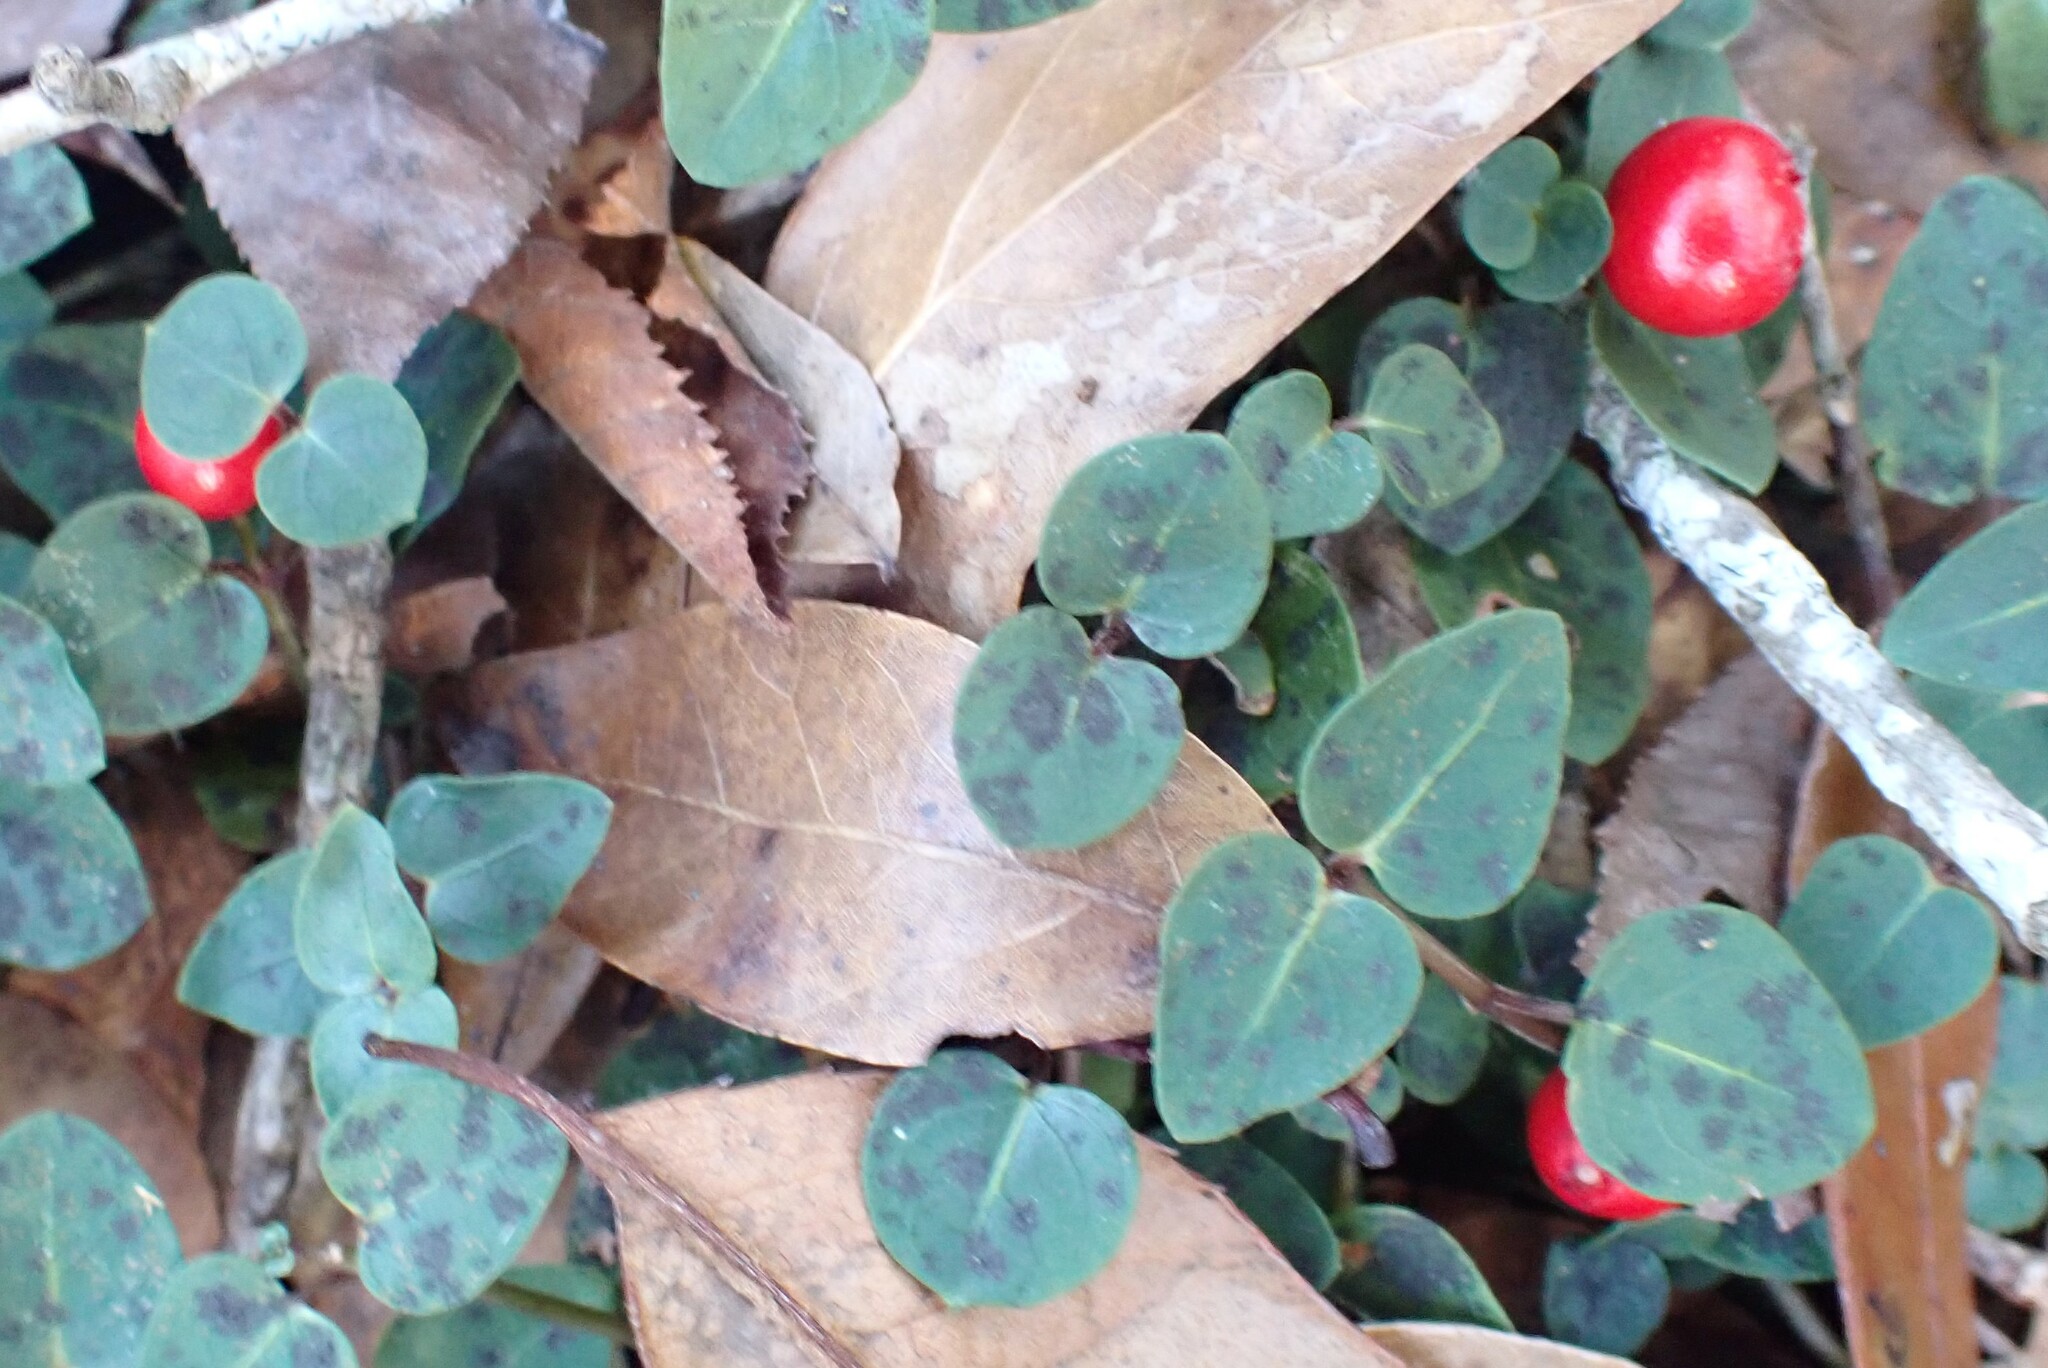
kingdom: Plantae
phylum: Tracheophyta
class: Magnoliopsida
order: Gentianales
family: Rubiaceae
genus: Mitchella
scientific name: Mitchella repens
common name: Partridge-berry
